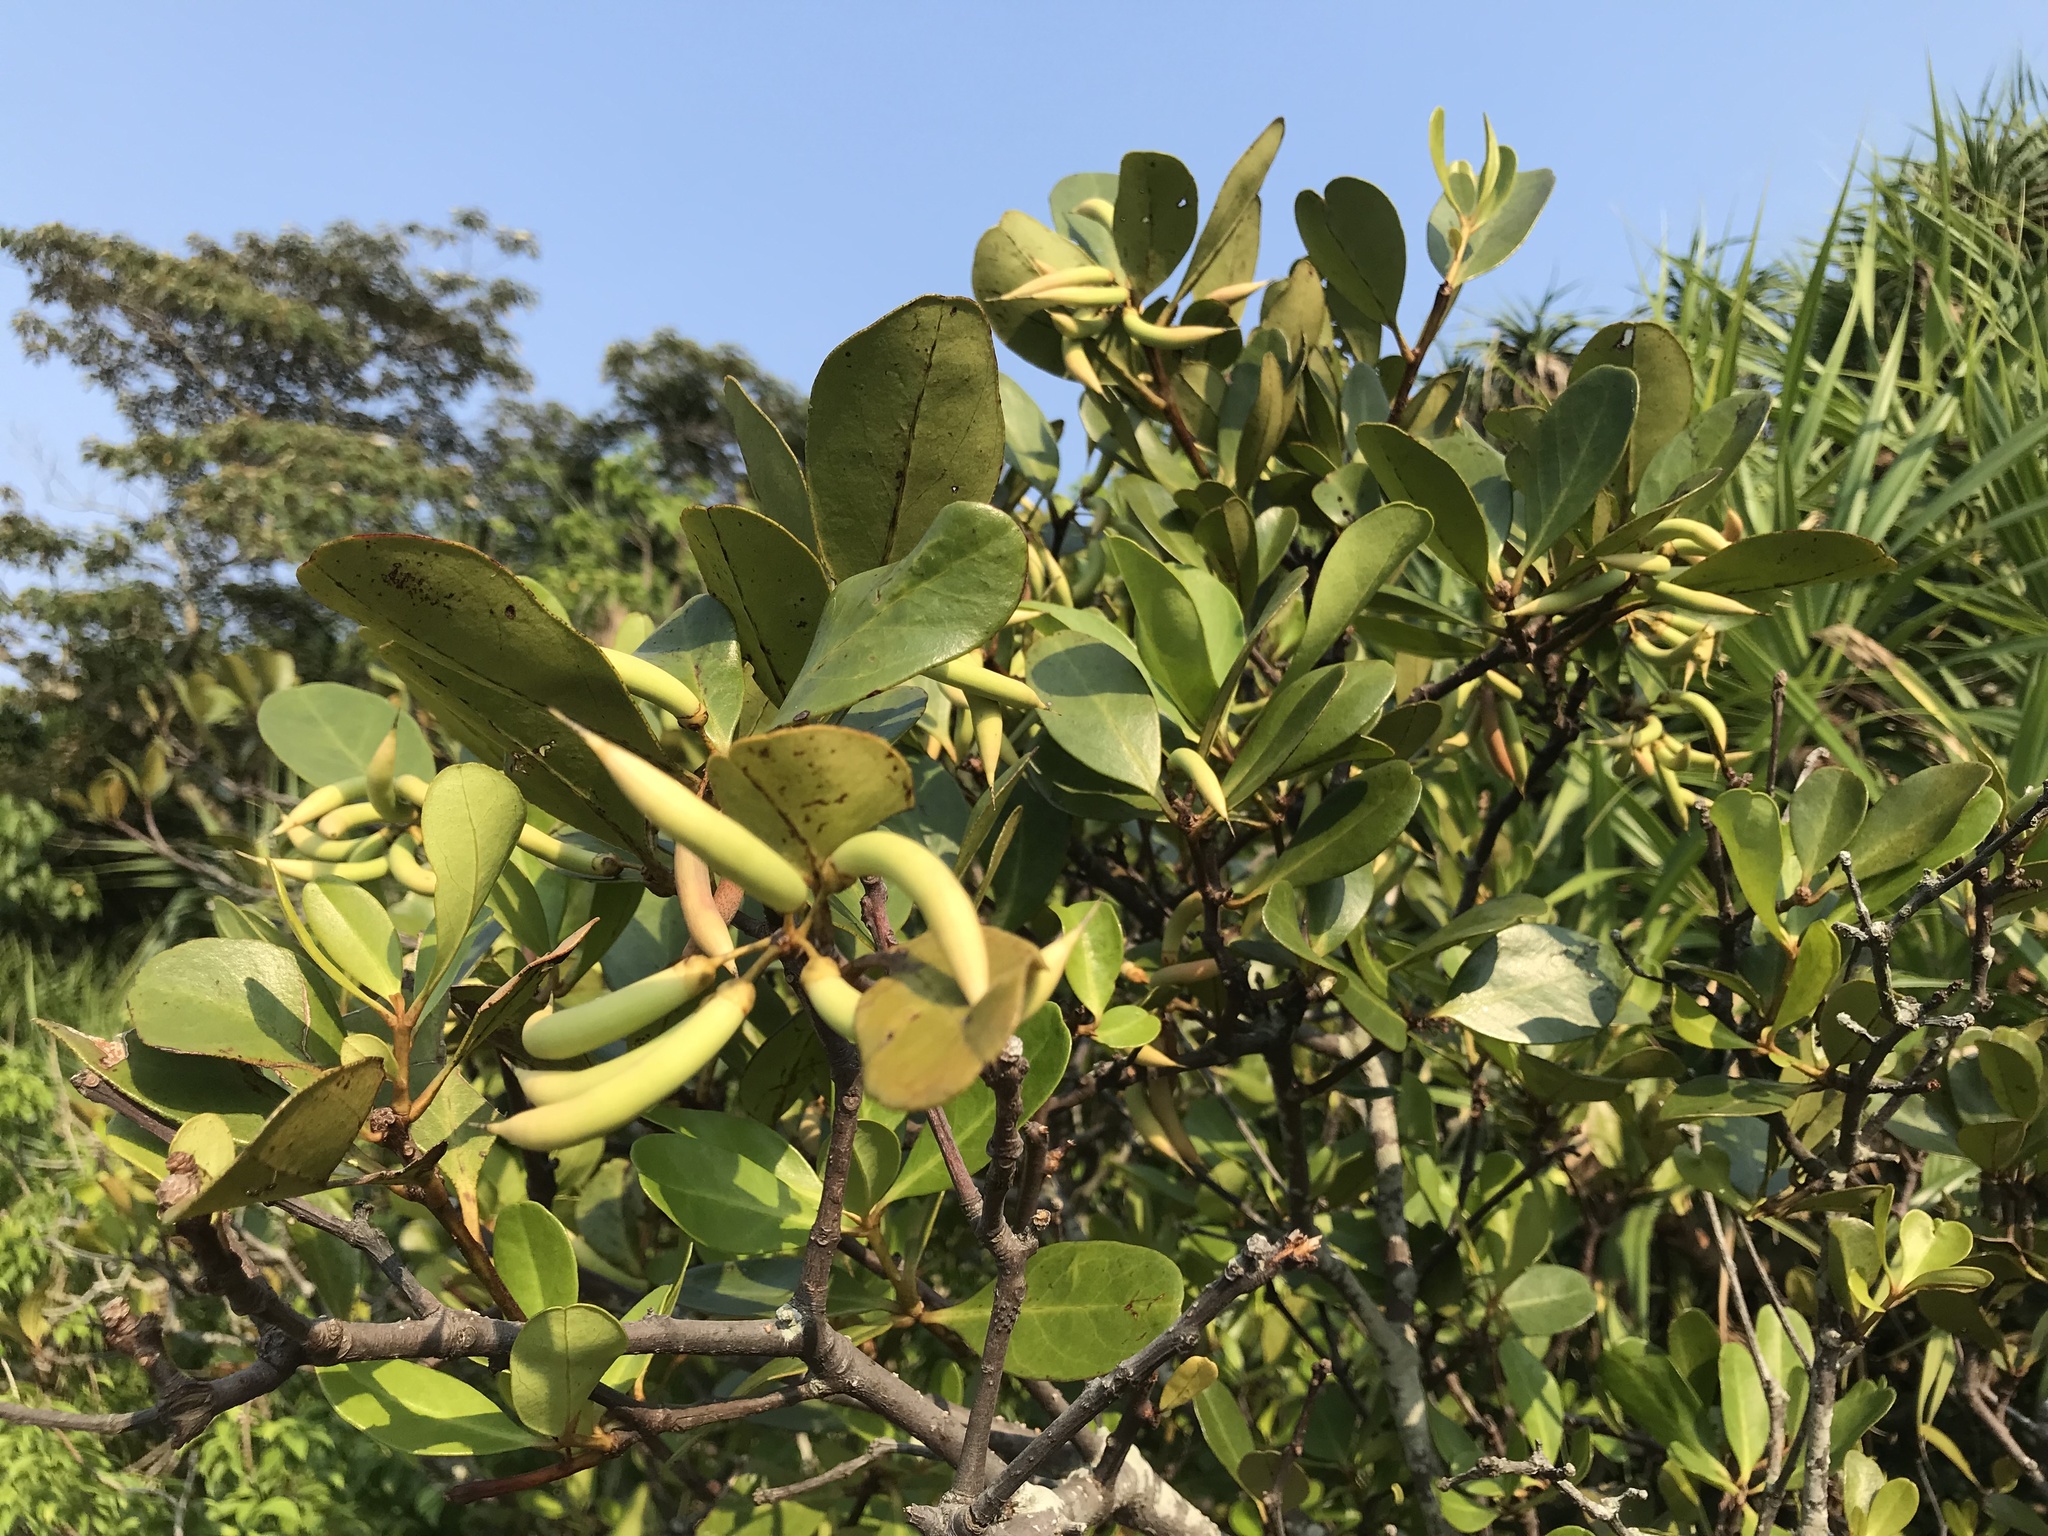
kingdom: Plantae
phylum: Tracheophyta
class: Magnoliopsida
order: Ericales
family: Primulaceae
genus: Aegiceras
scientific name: Aegiceras corniculatum
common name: River mangrove
